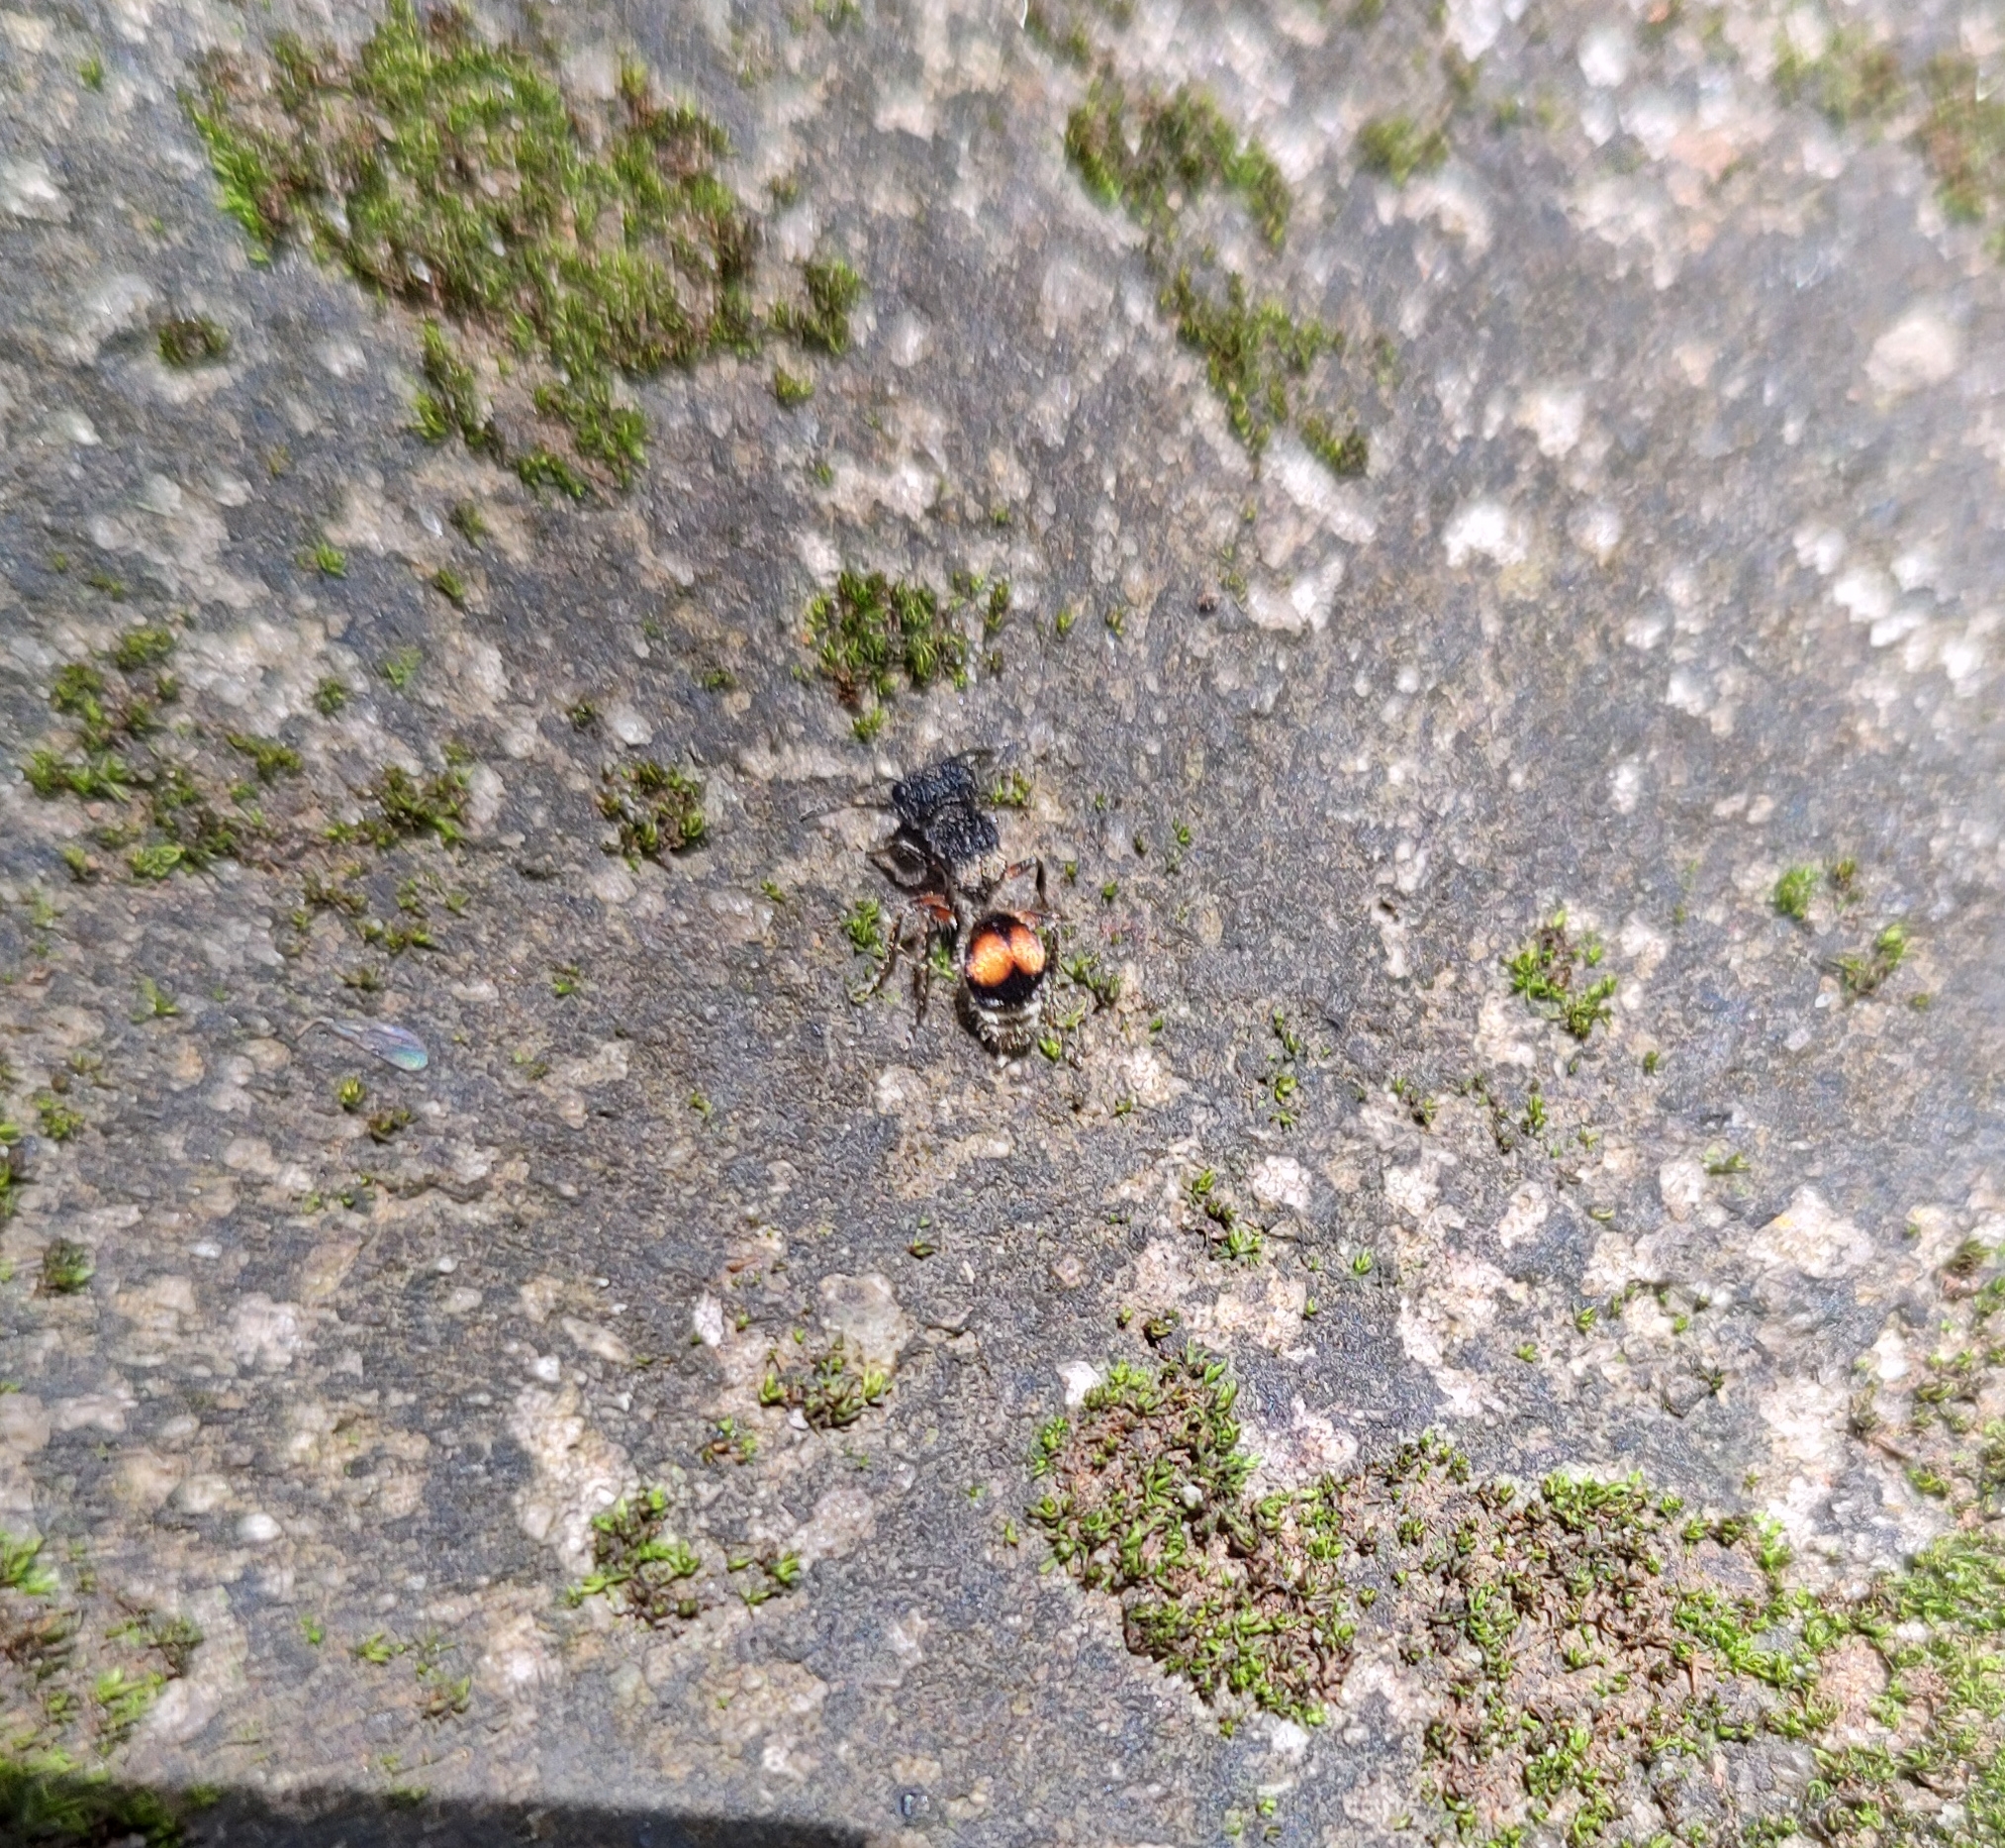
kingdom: Animalia
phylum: Arthropoda
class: Insecta
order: Hymenoptera
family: Mutillidae
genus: Darditilla
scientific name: Darditilla felina
